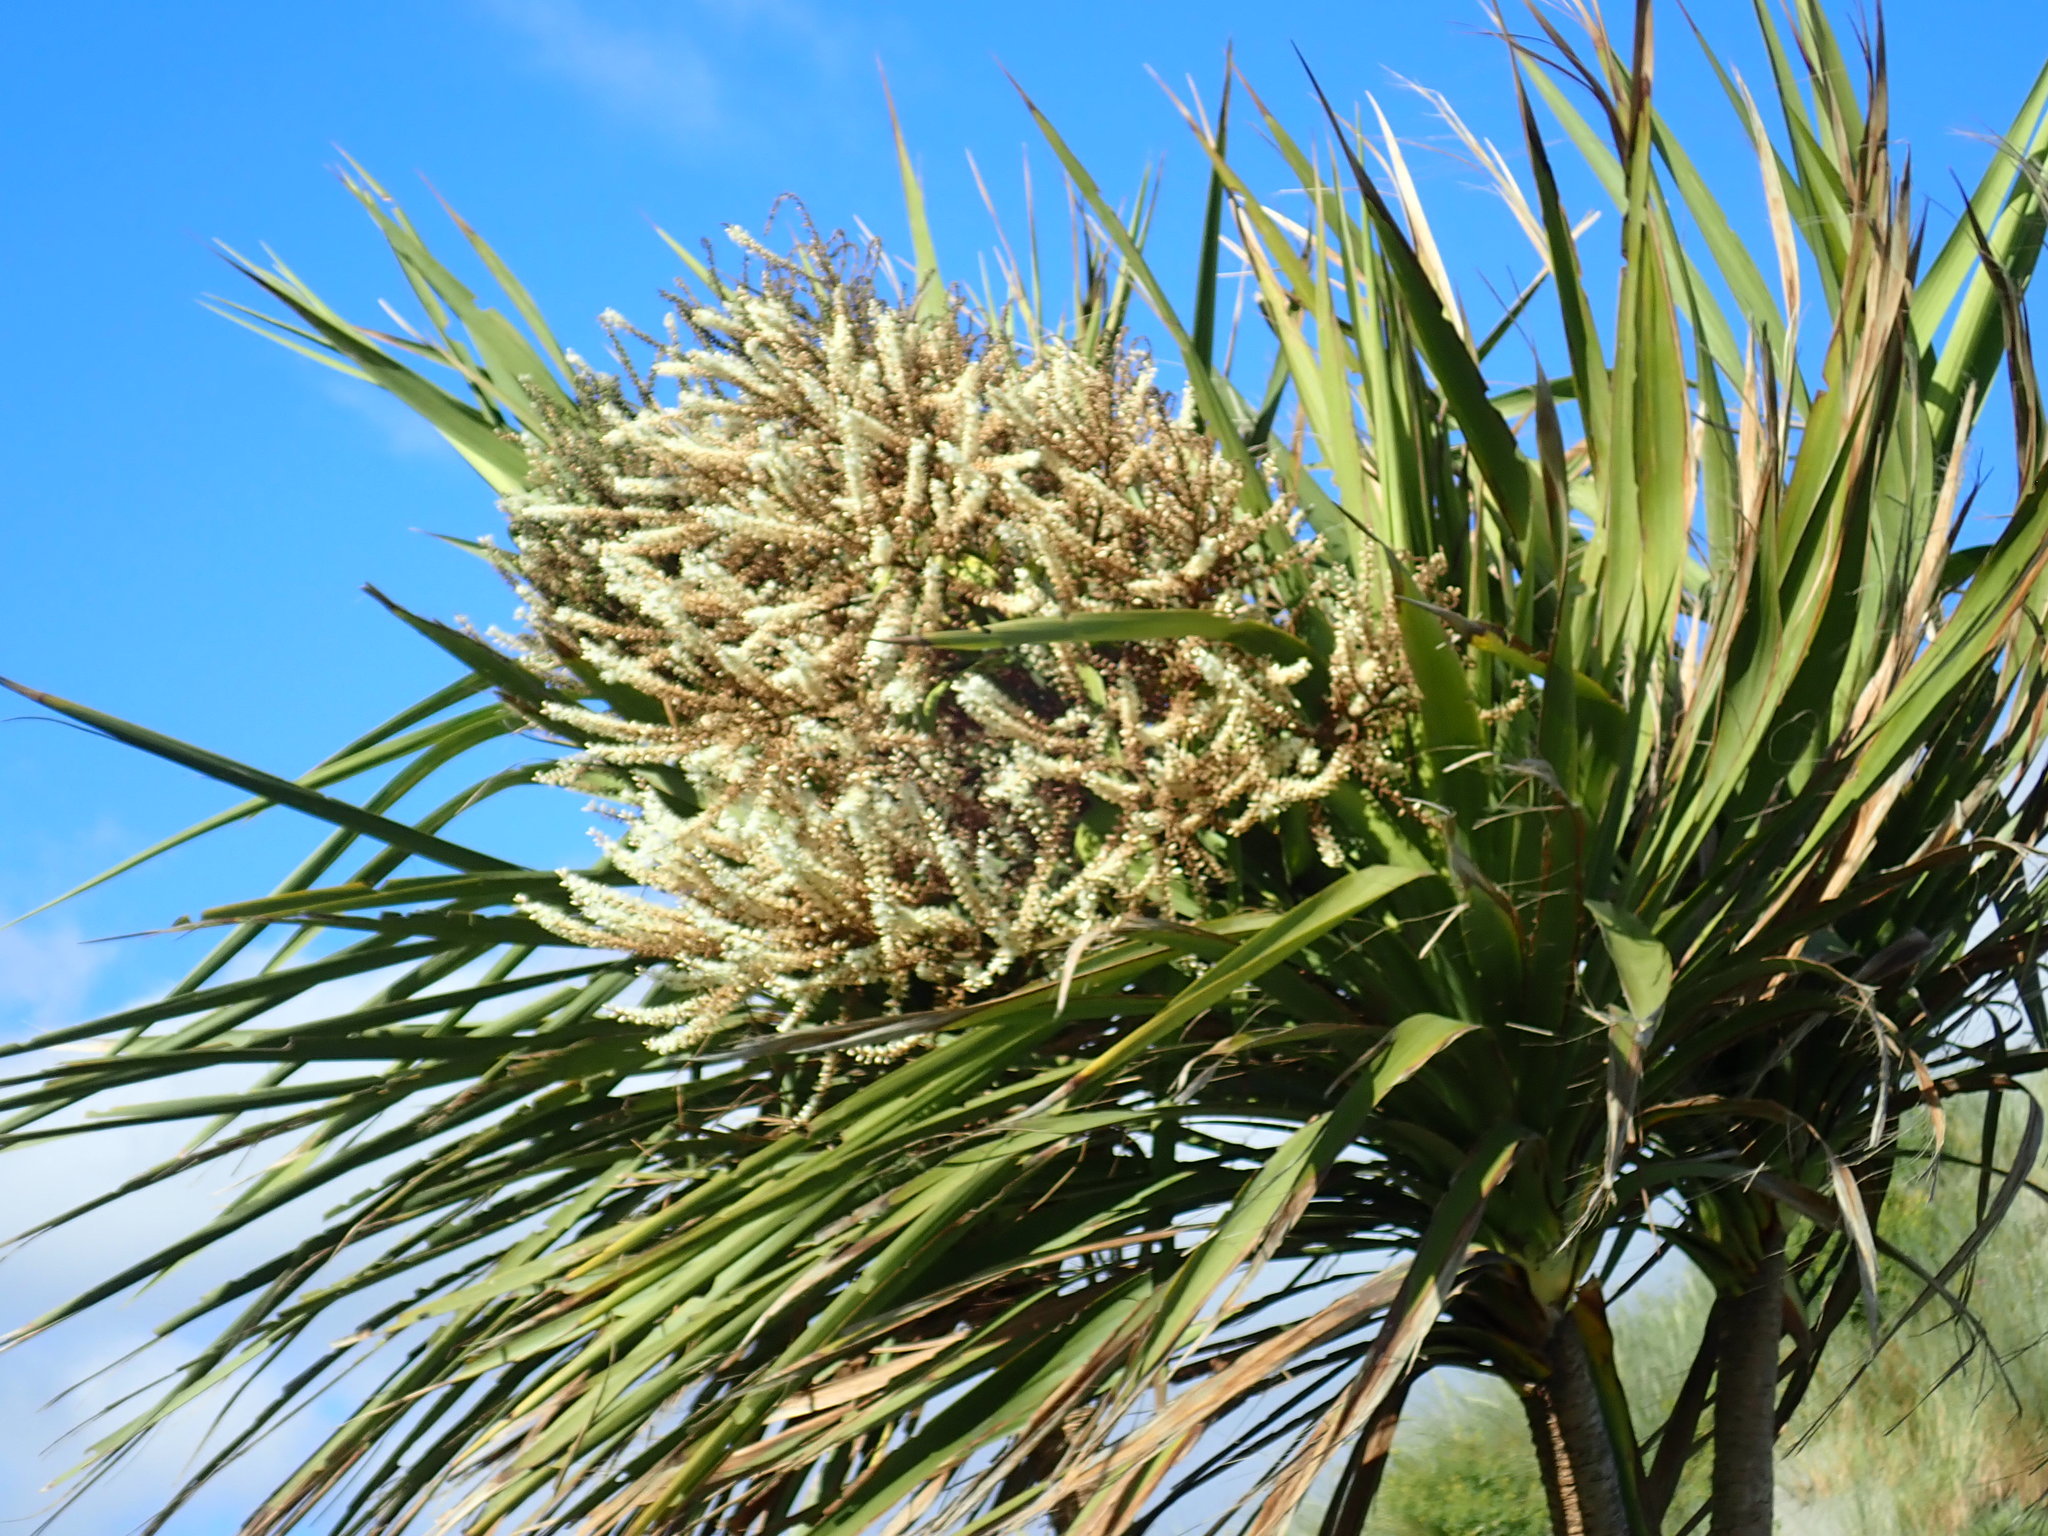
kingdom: Plantae
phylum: Tracheophyta
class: Liliopsida
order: Asparagales
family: Asparagaceae
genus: Cordyline
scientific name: Cordyline australis
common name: Cabbage-palm
